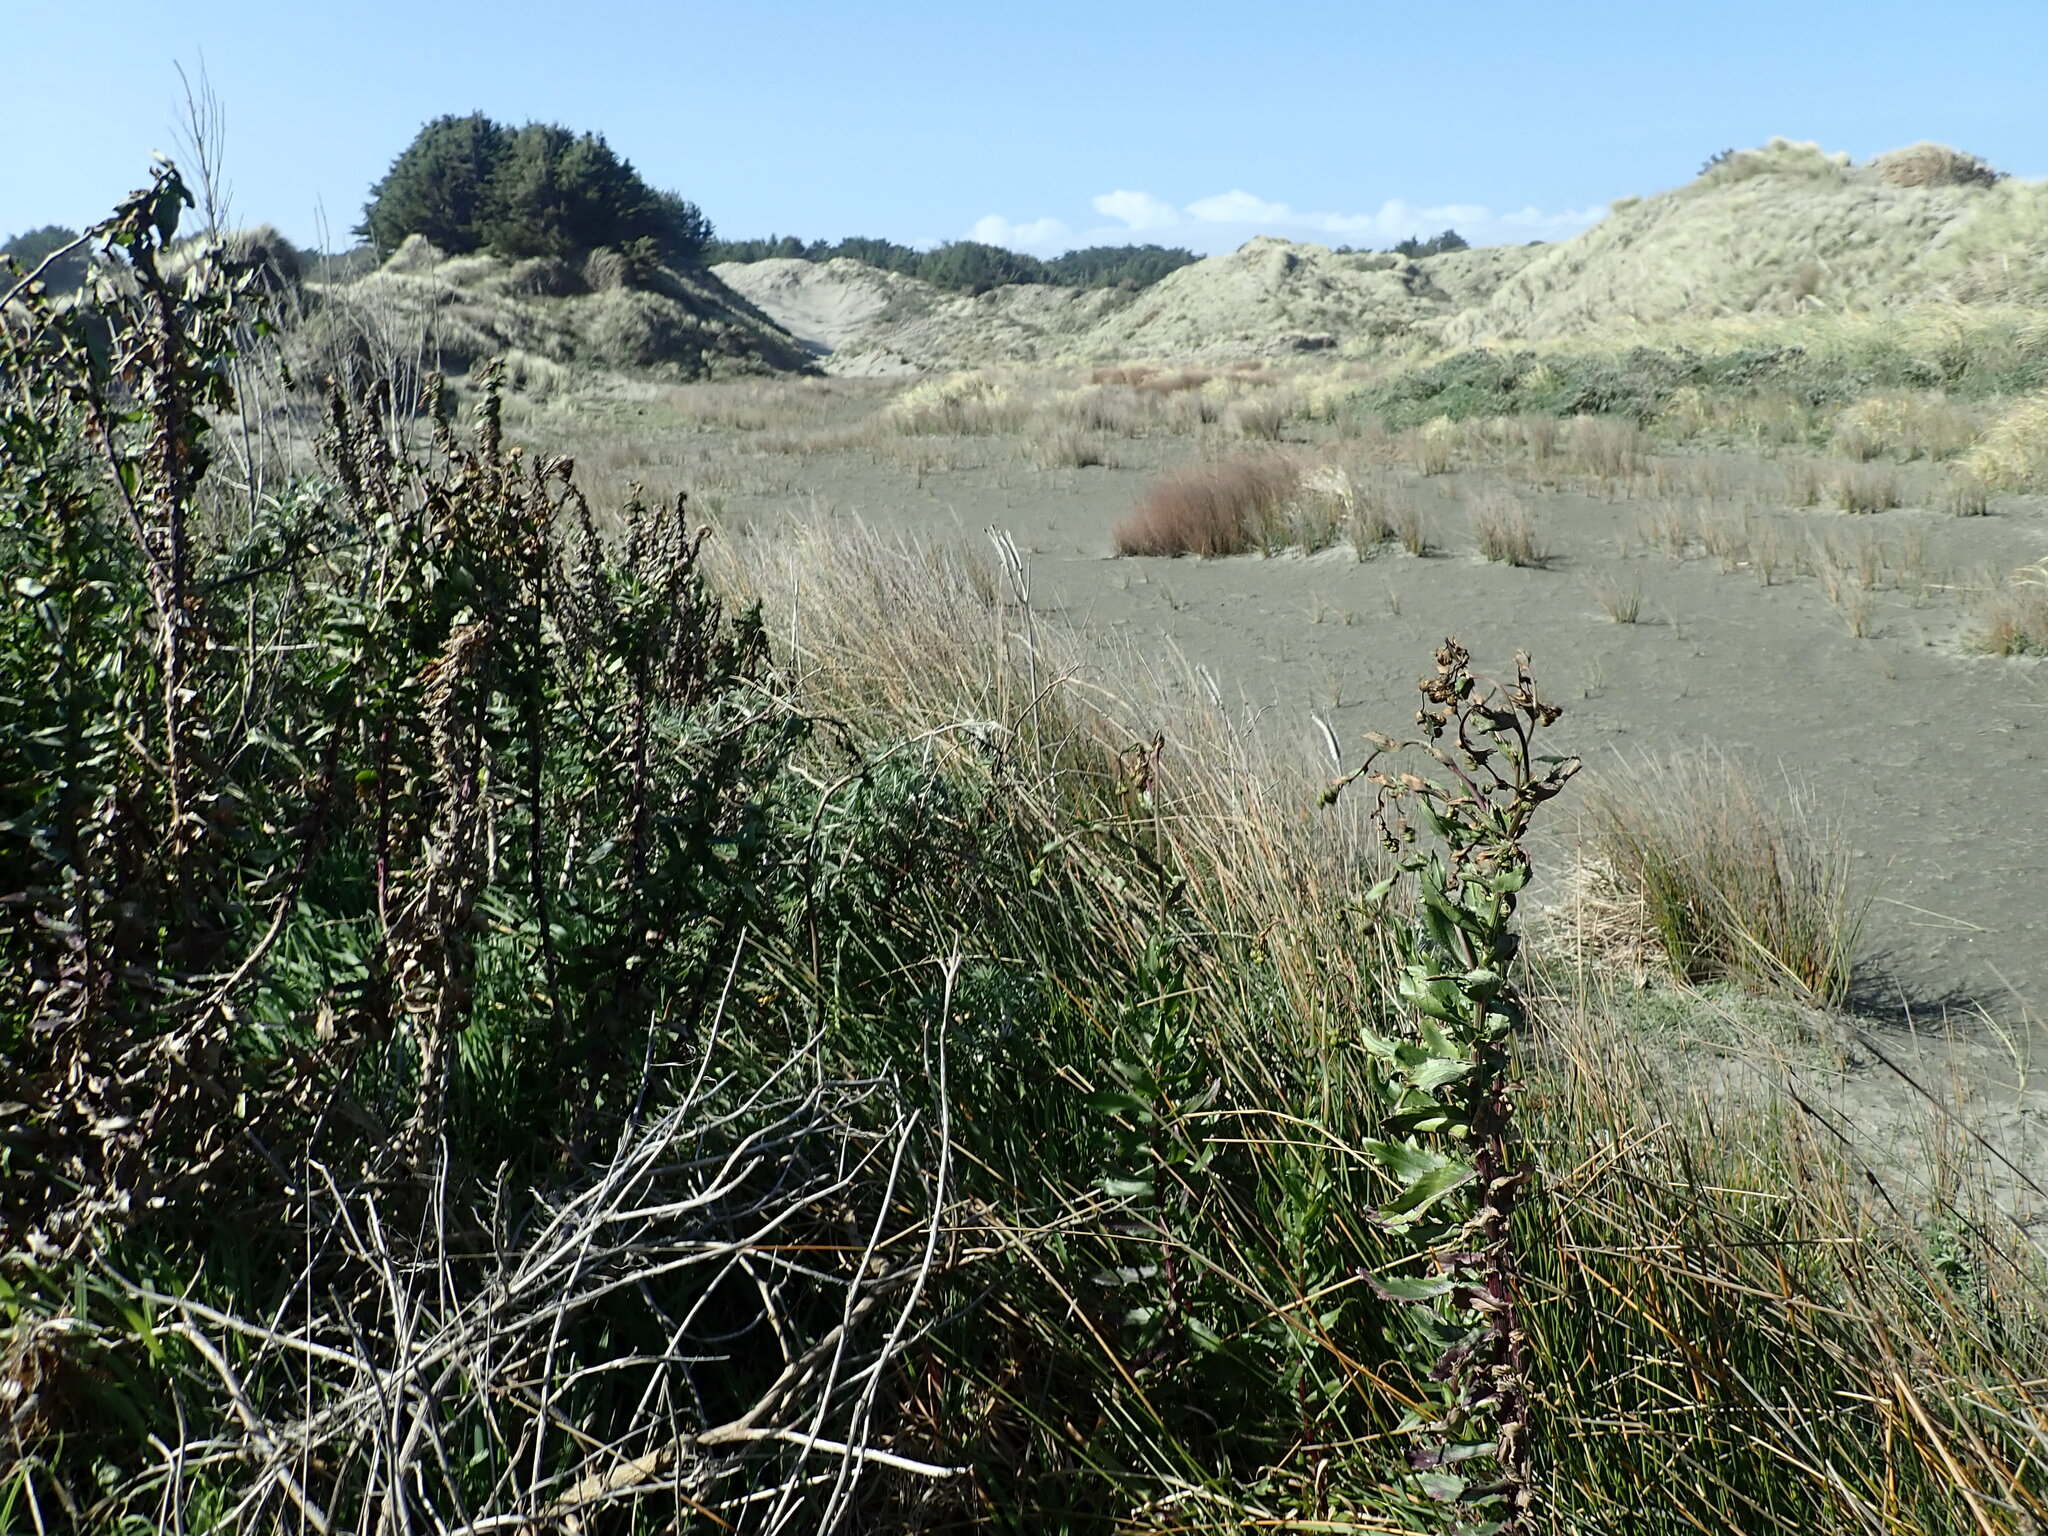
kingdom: Plantae
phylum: Tracheophyta
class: Magnoliopsida
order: Asterales
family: Asteraceae
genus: Senecio
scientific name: Senecio glastifolius
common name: Woad-leaved ragwort
